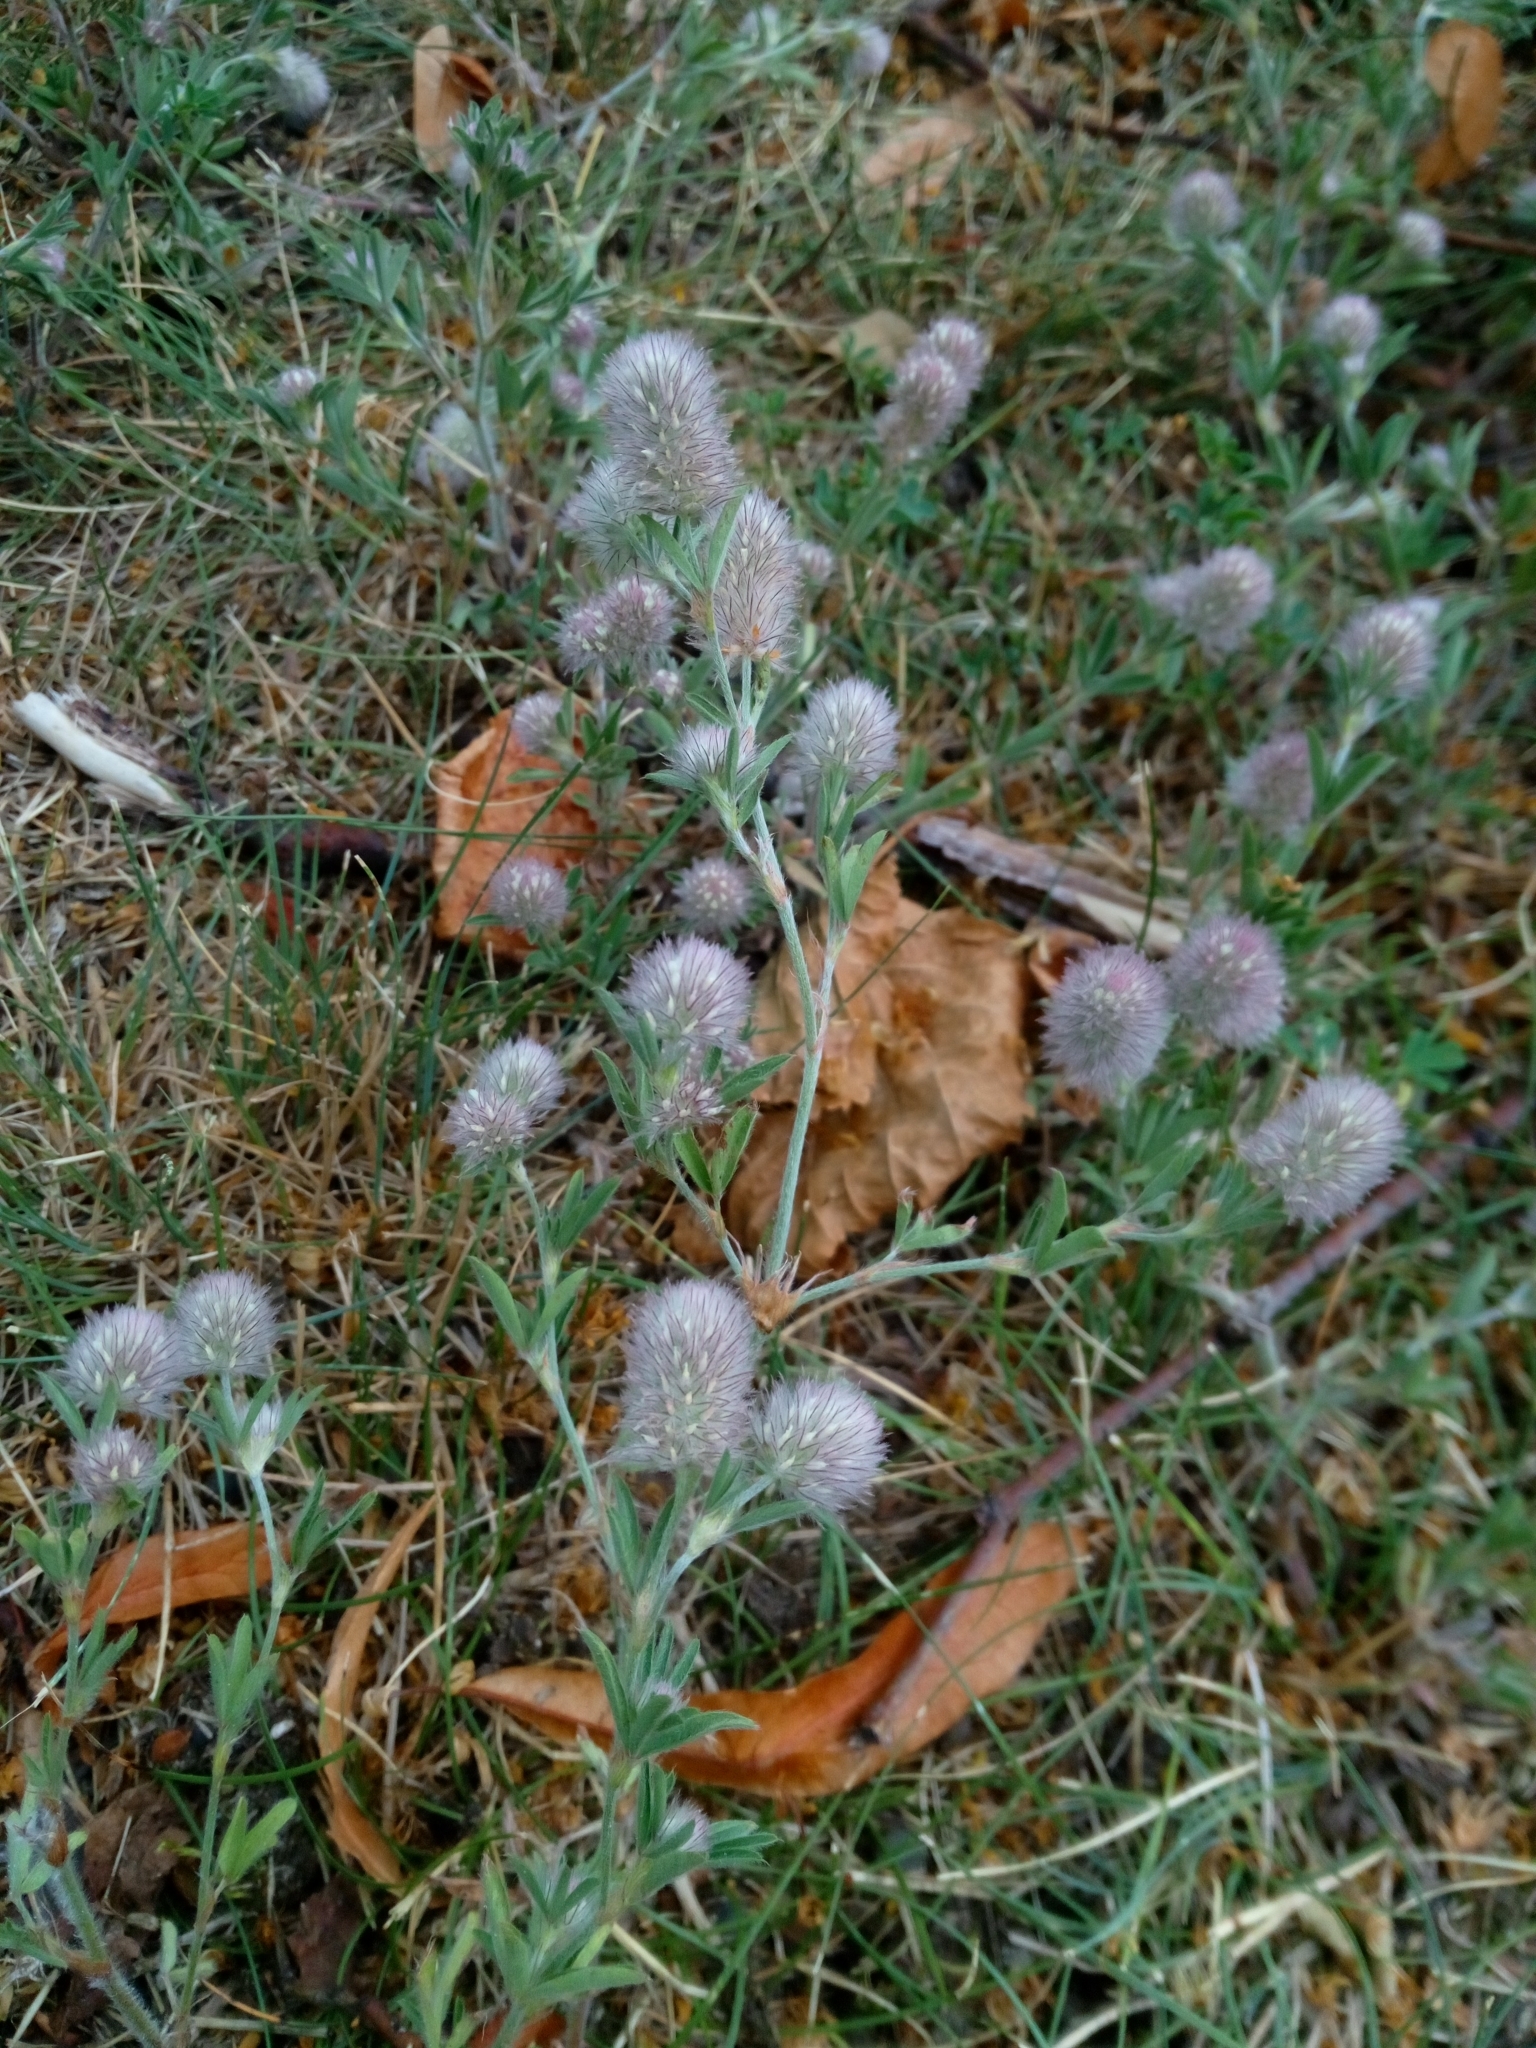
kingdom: Plantae
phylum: Tracheophyta
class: Magnoliopsida
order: Fabales
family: Fabaceae
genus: Trifolium
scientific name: Trifolium arvense
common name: Hare's-foot clover
